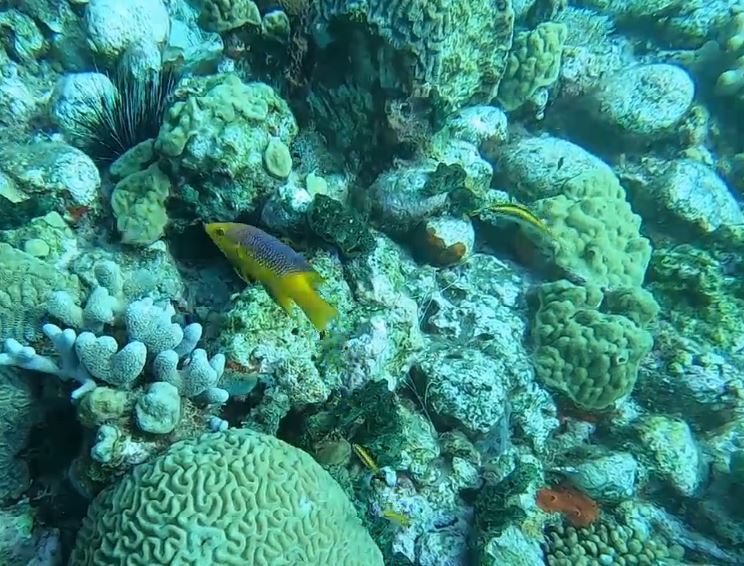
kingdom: Animalia
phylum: Chordata
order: Perciformes
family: Labridae
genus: Bodianus
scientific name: Bodianus rufus
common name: Spanish hogfish
